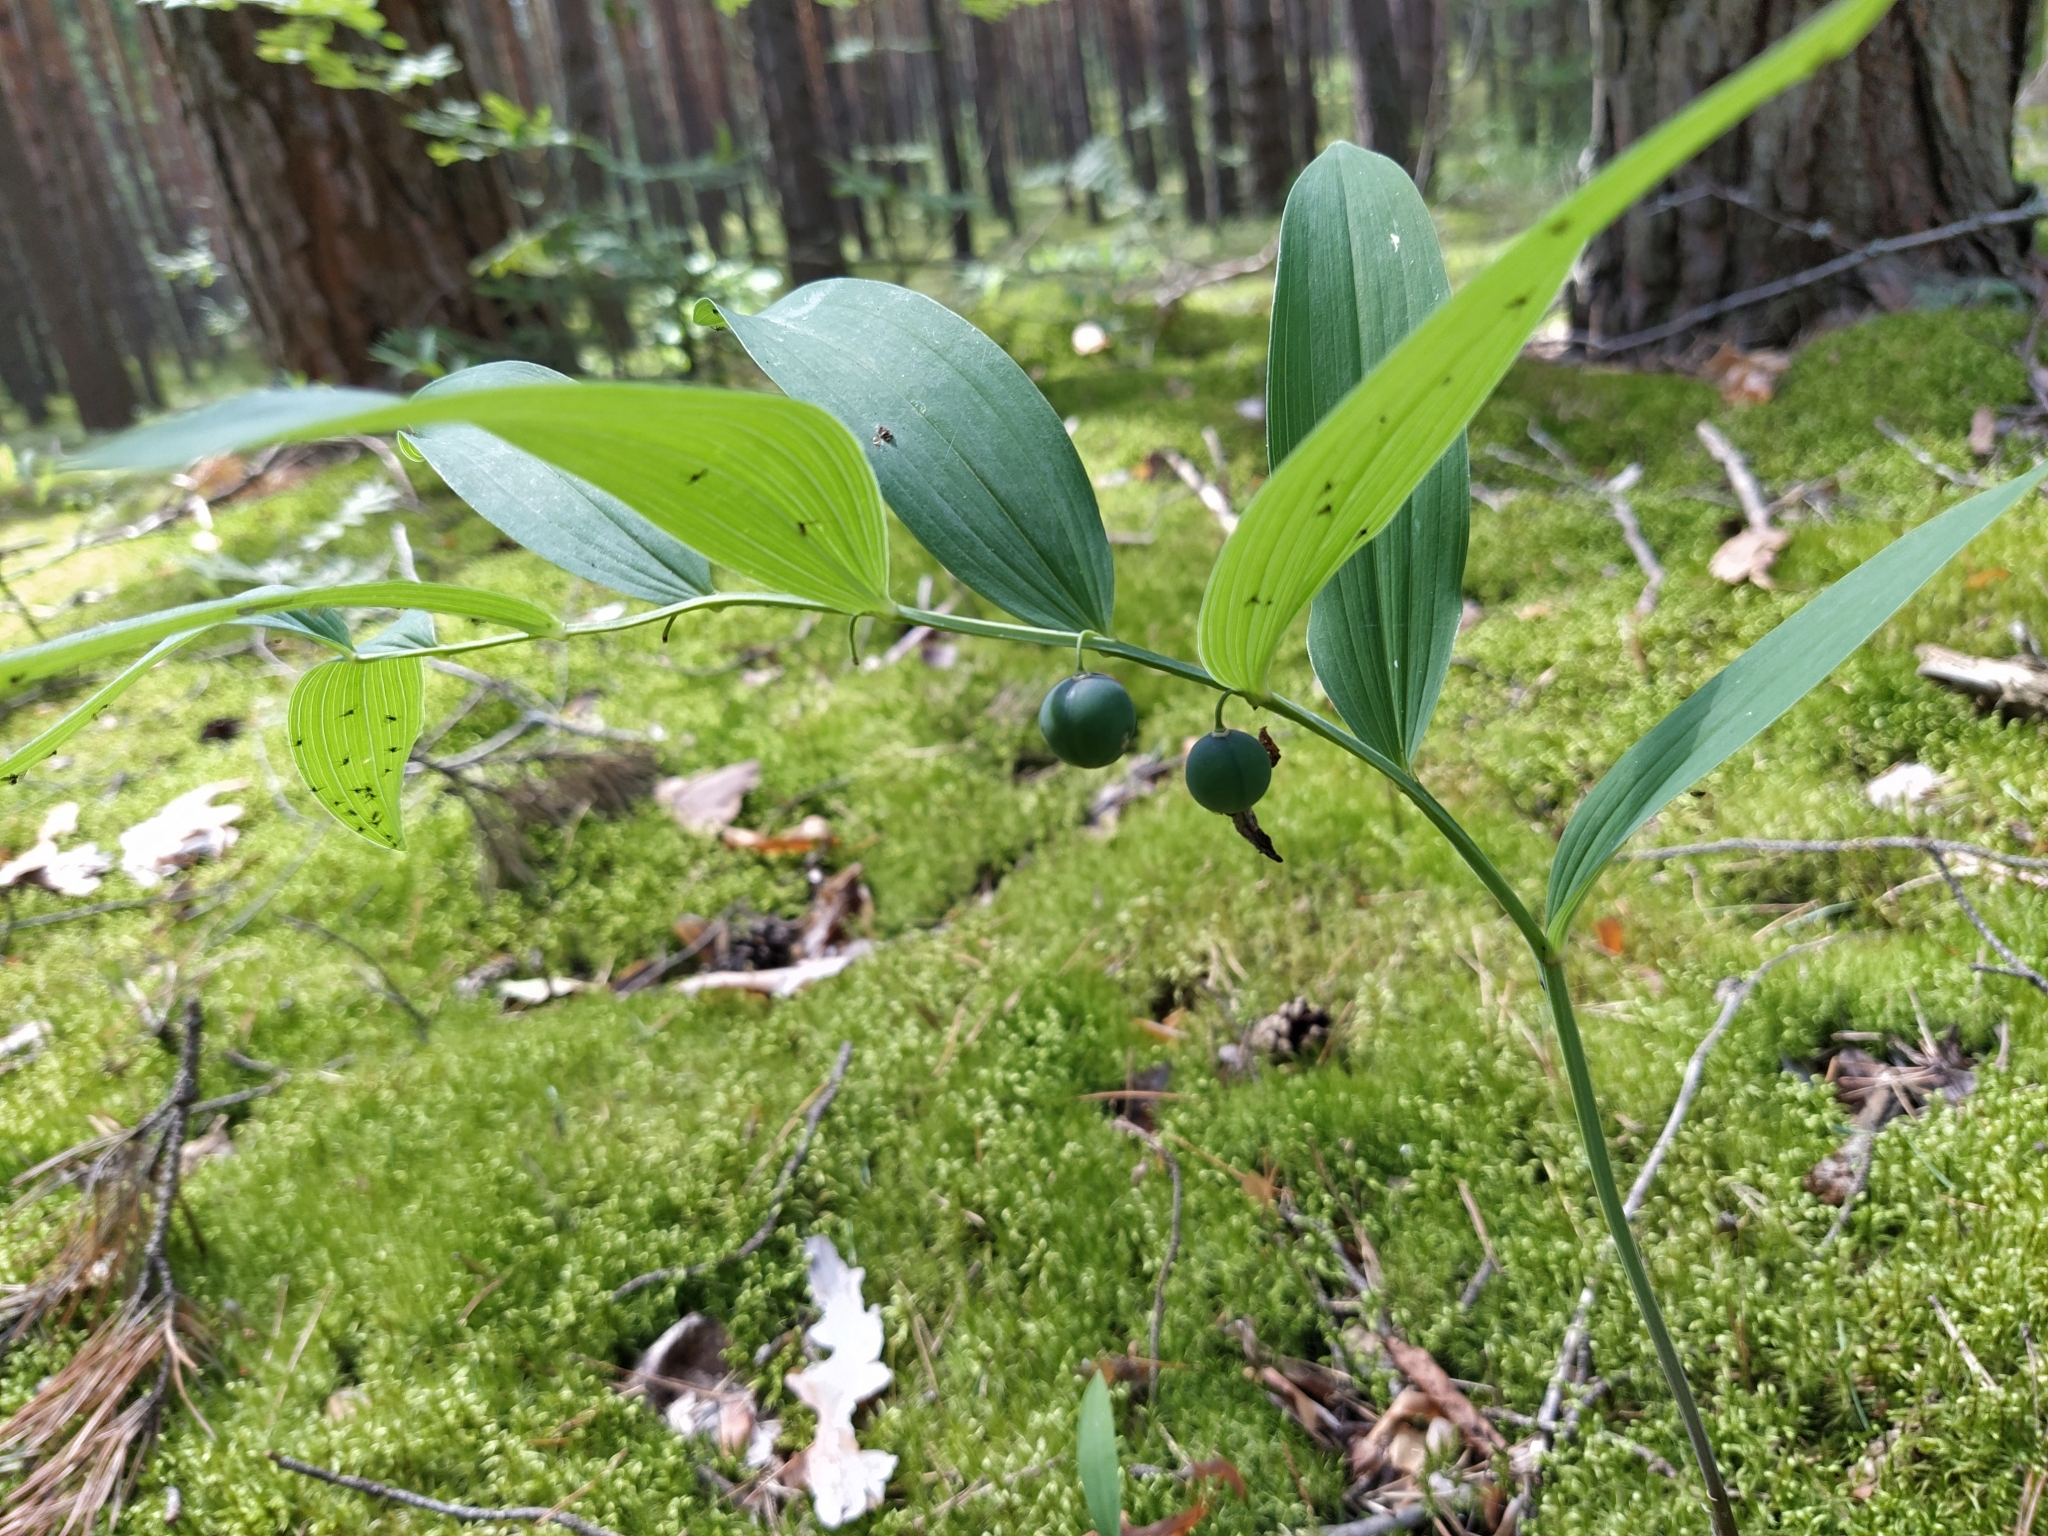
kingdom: Plantae
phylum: Tracheophyta
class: Liliopsida
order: Asparagales
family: Asparagaceae
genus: Polygonatum
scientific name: Polygonatum odoratum
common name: Angular solomon's-seal
